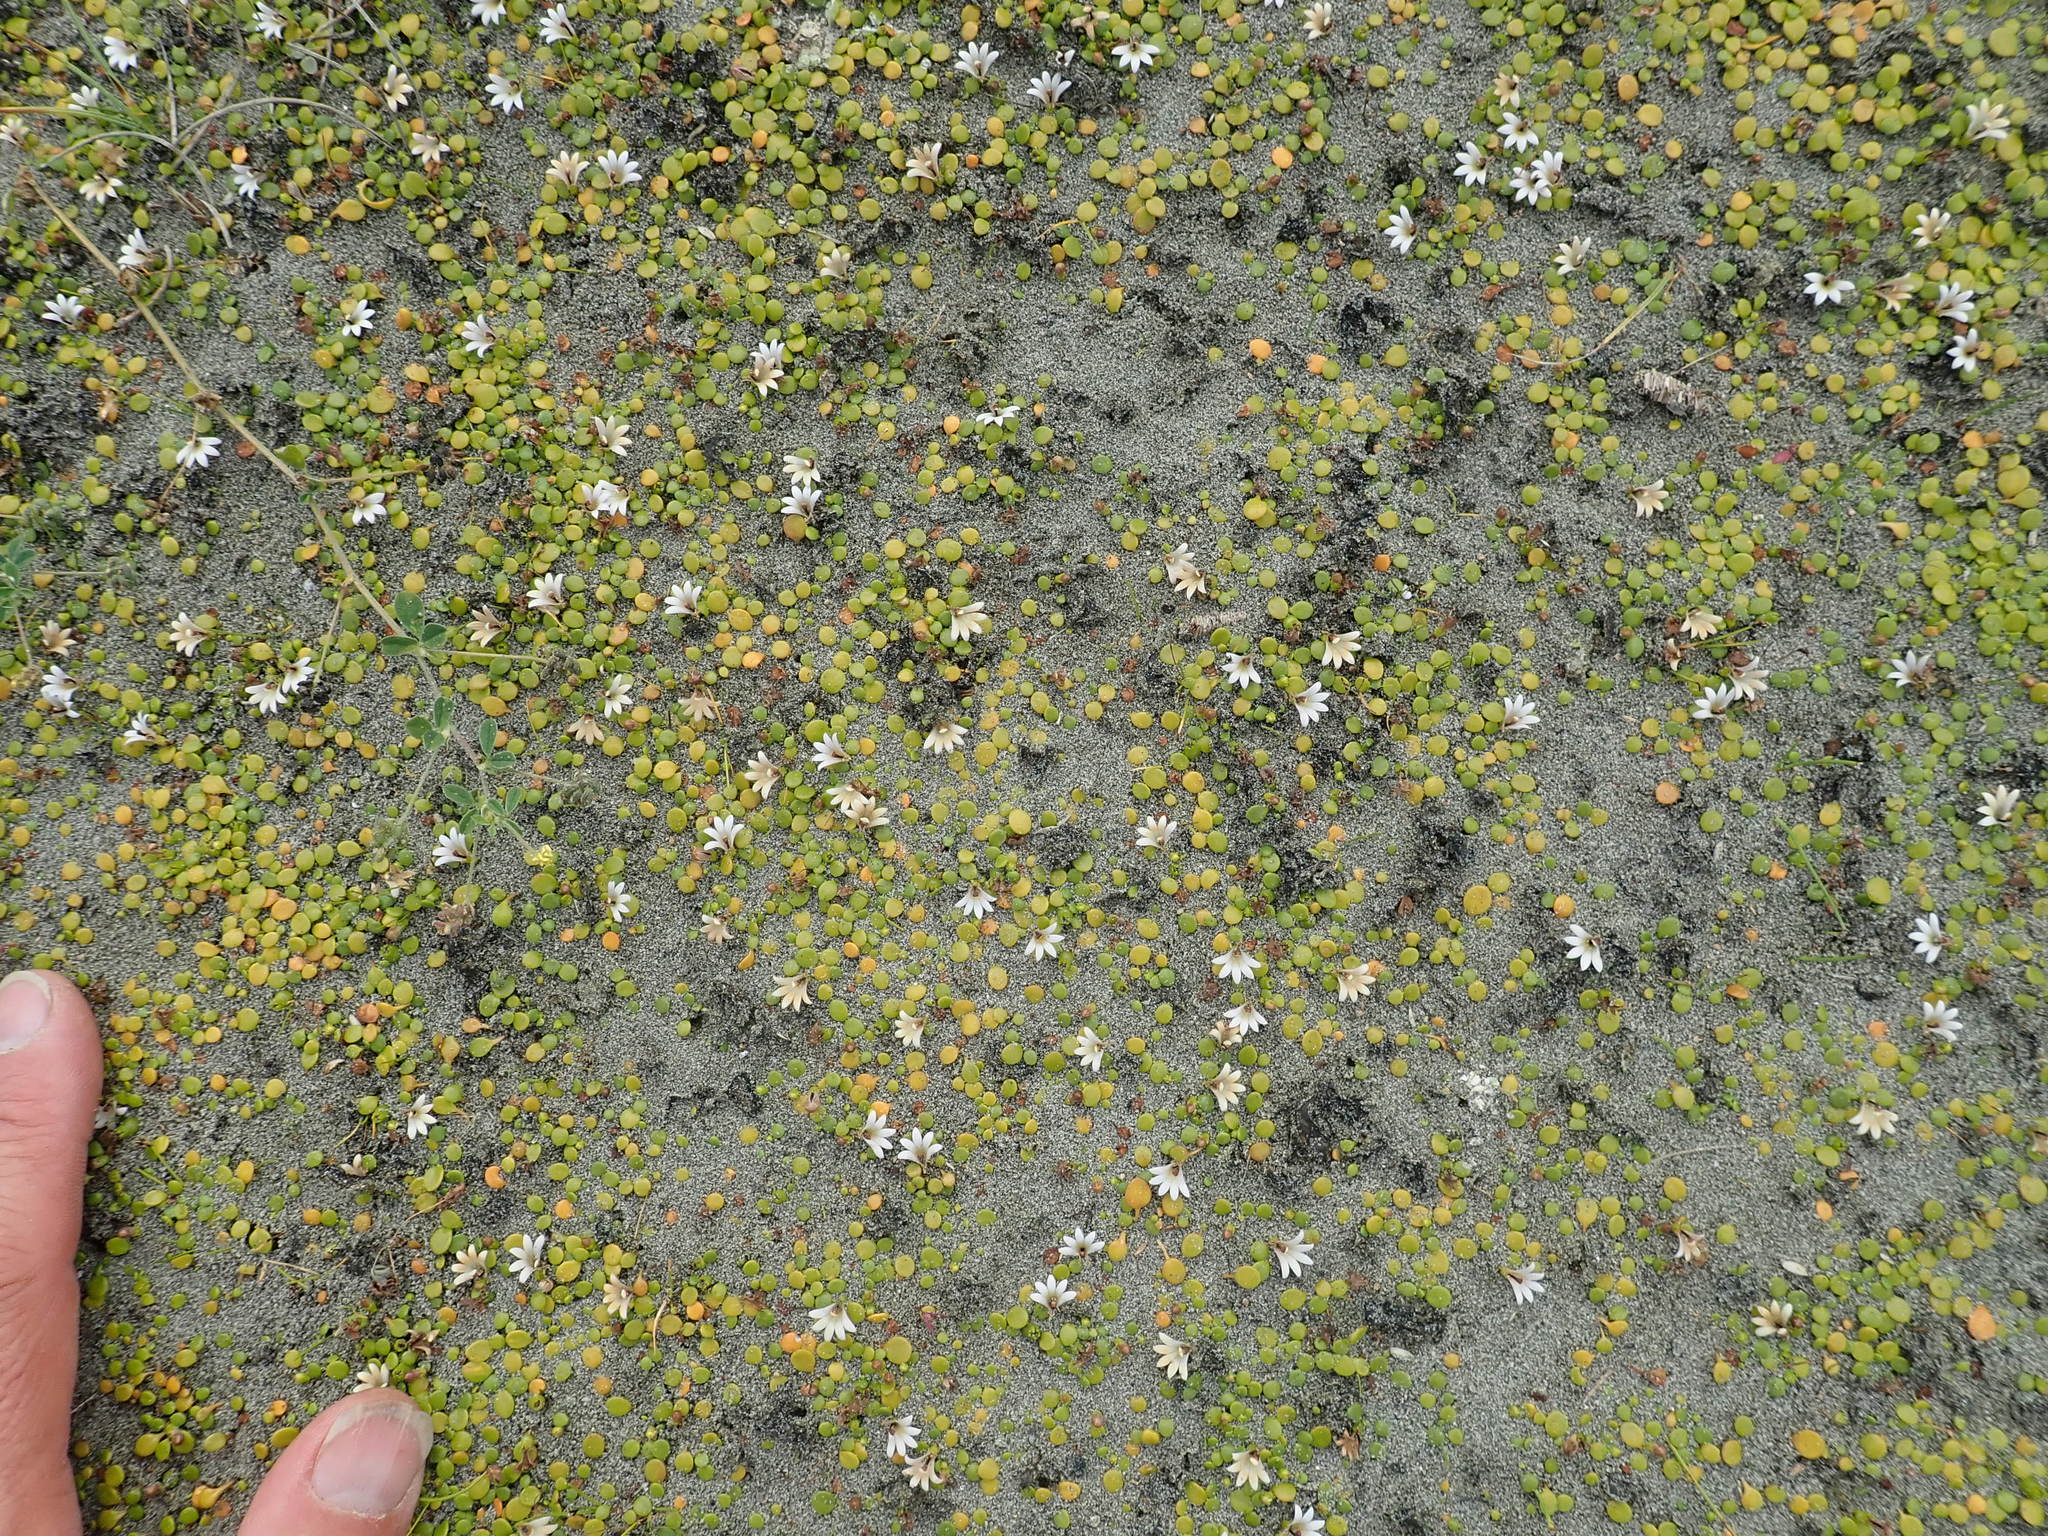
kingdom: Plantae
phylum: Tracheophyta
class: Magnoliopsida
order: Asterales
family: Goodeniaceae
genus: Goodenia
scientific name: Goodenia heenanii
